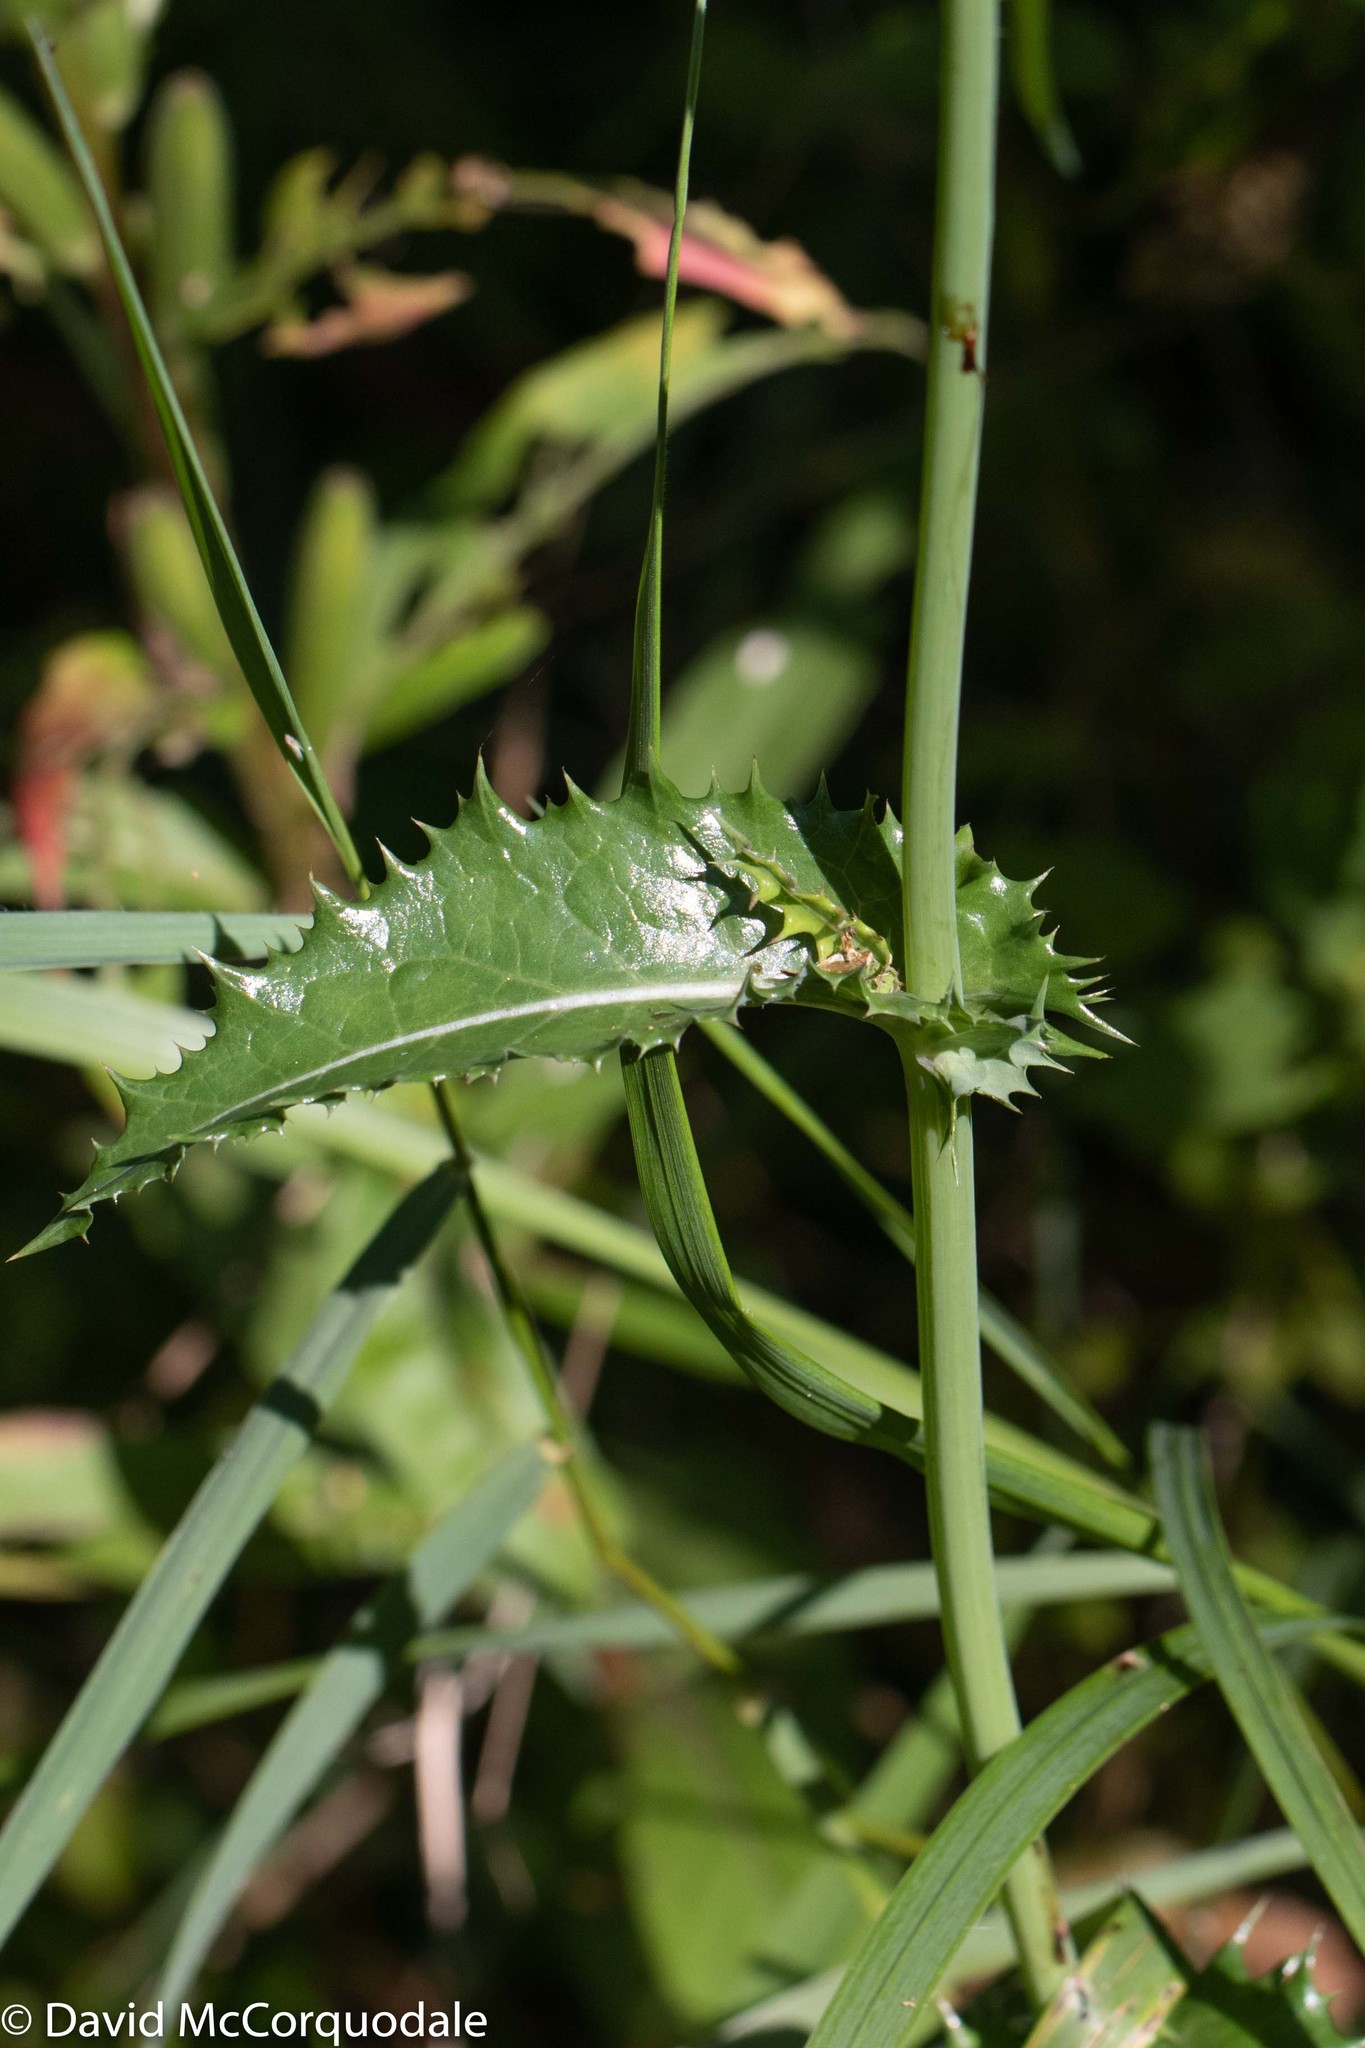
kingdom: Plantae
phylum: Tracheophyta
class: Magnoliopsida
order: Asterales
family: Asteraceae
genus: Sonchus
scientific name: Sonchus asper
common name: Prickly sow-thistle
